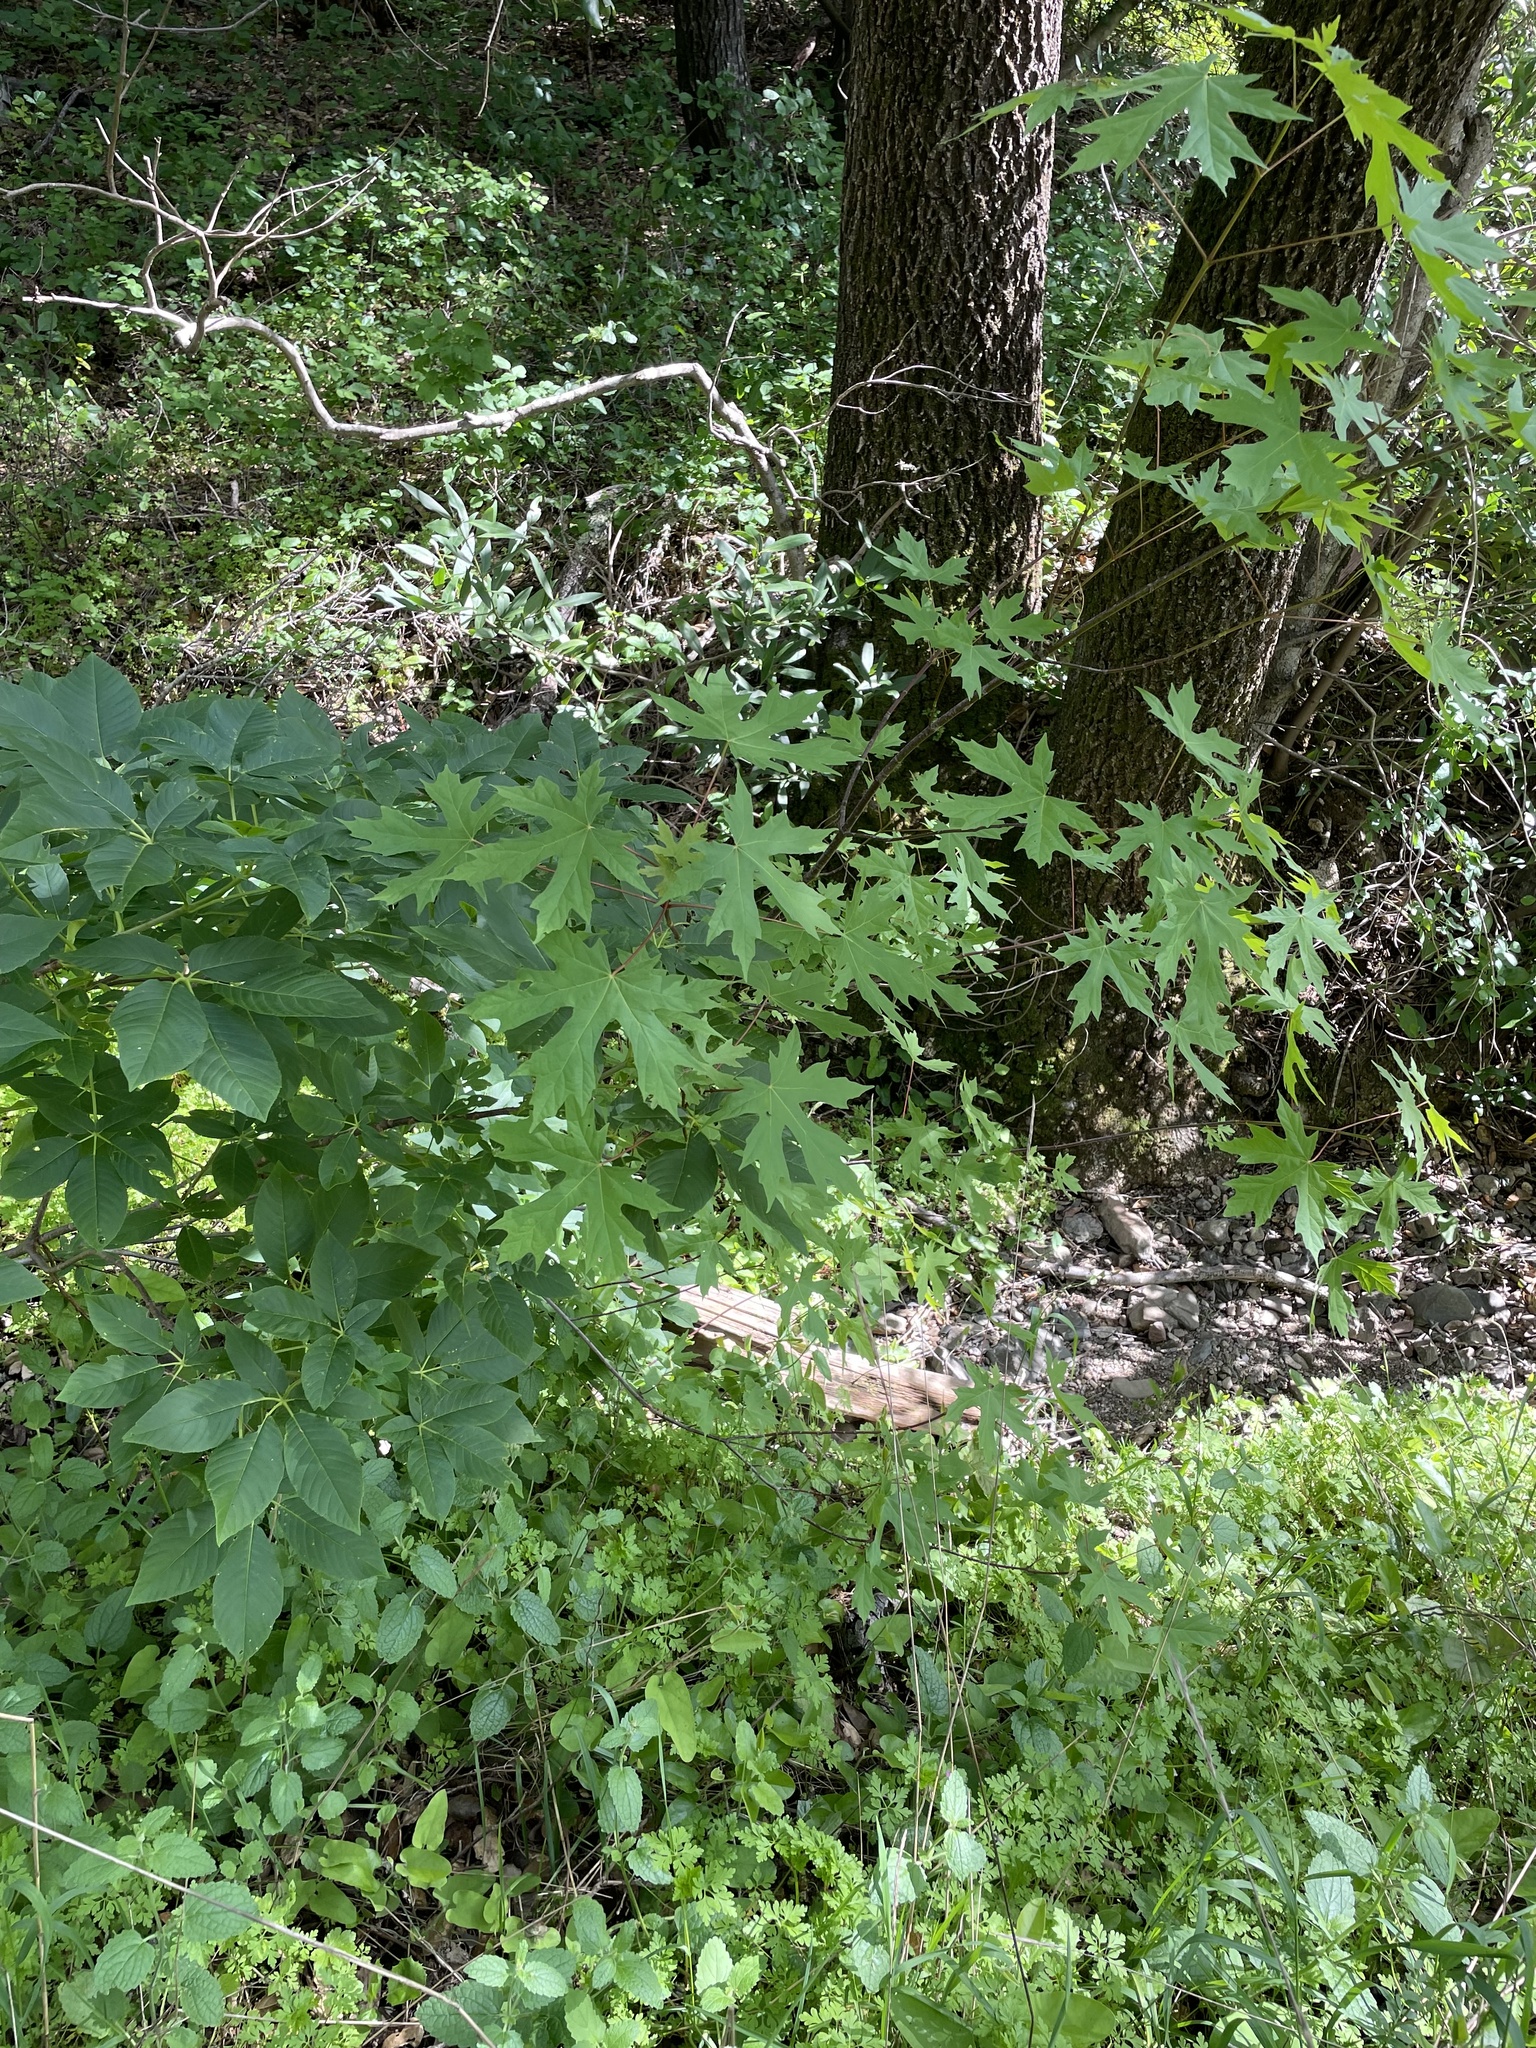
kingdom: Plantae
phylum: Tracheophyta
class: Magnoliopsida
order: Sapindales
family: Sapindaceae
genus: Acer
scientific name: Acer macrophyllum
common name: Oregon maple
